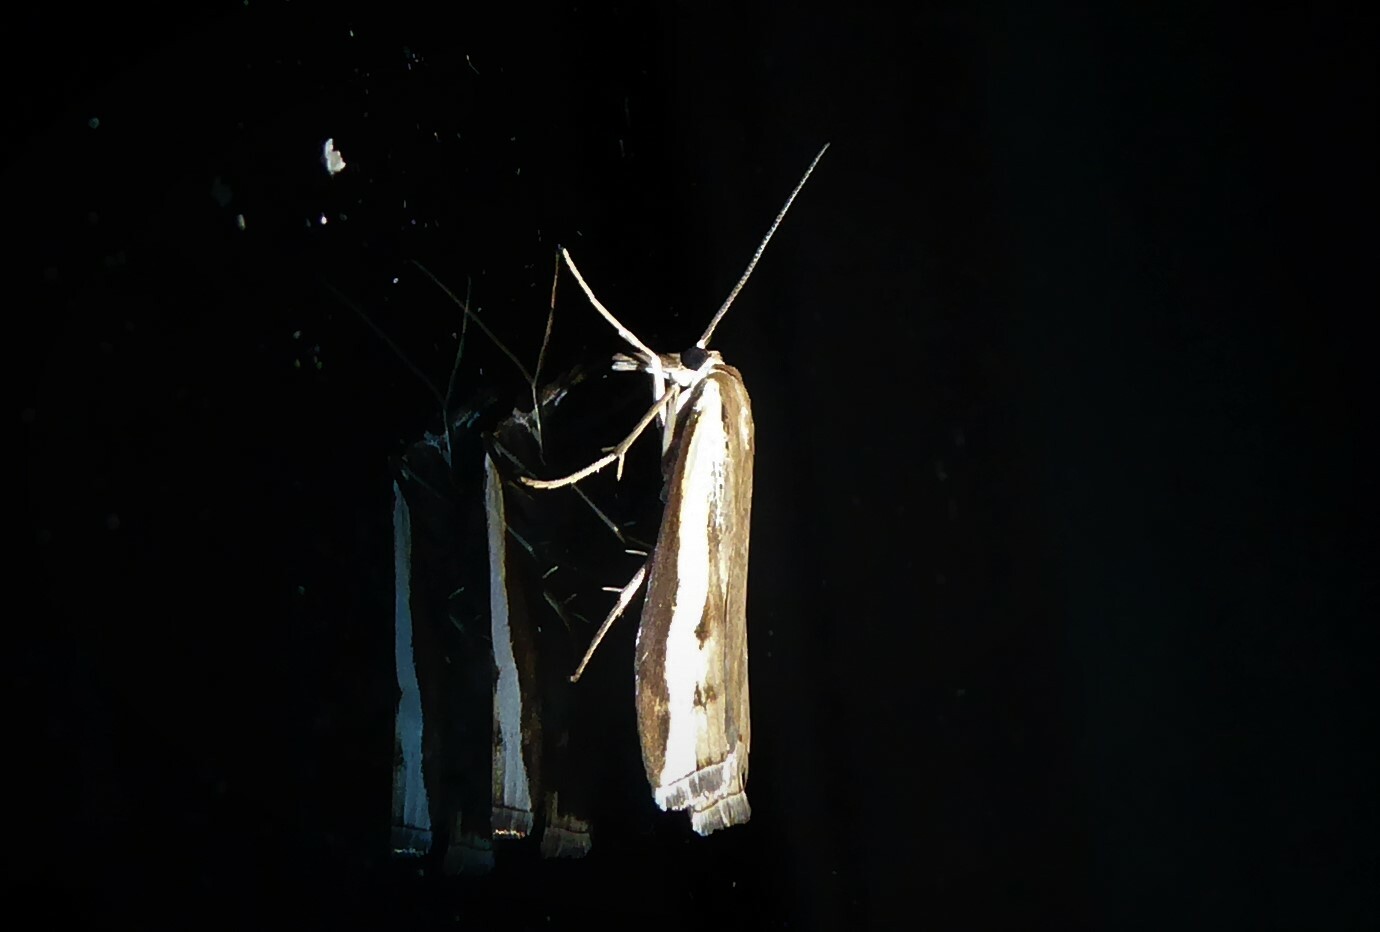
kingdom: Animalia
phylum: Arthropoda
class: Insecta
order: Lepidoptera
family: Crambidae
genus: Orocrambus
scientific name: Orocrambus flexuosellus
